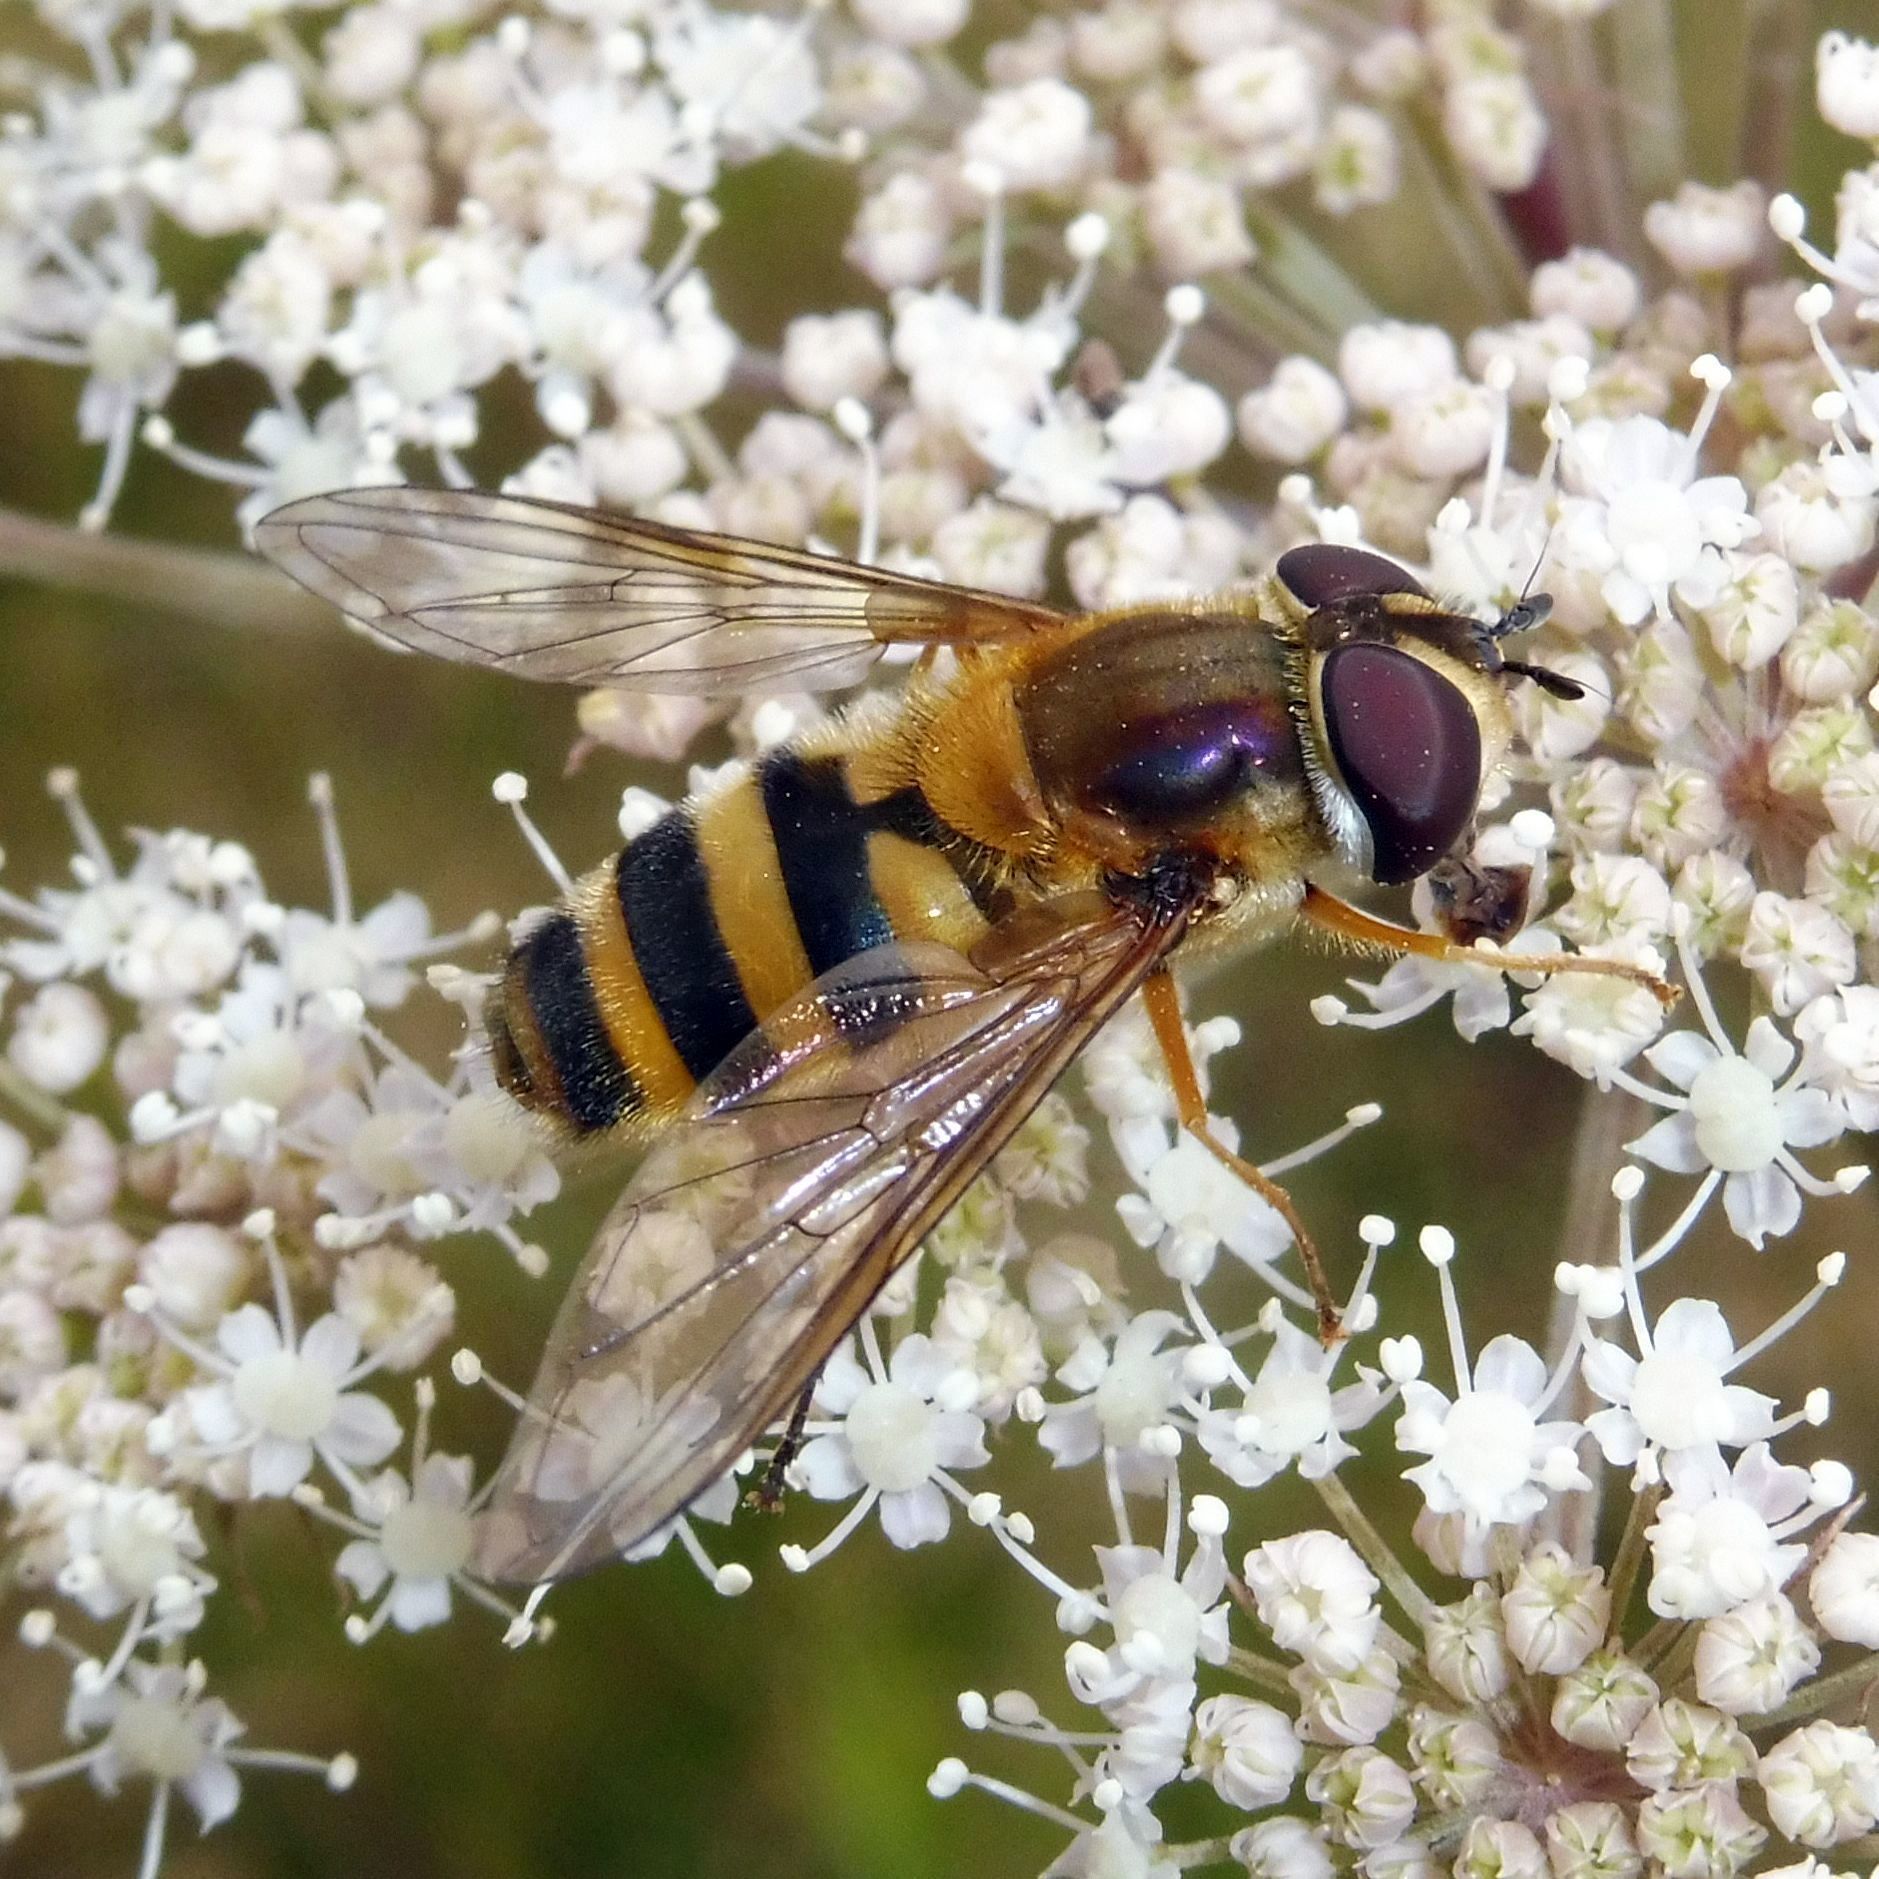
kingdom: Animalia
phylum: Arthropoda
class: Insecta
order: Diptera
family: Syrphidae
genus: Epistrophe
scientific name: Epistrophe grossulariae
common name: Black-horned smoothtail
